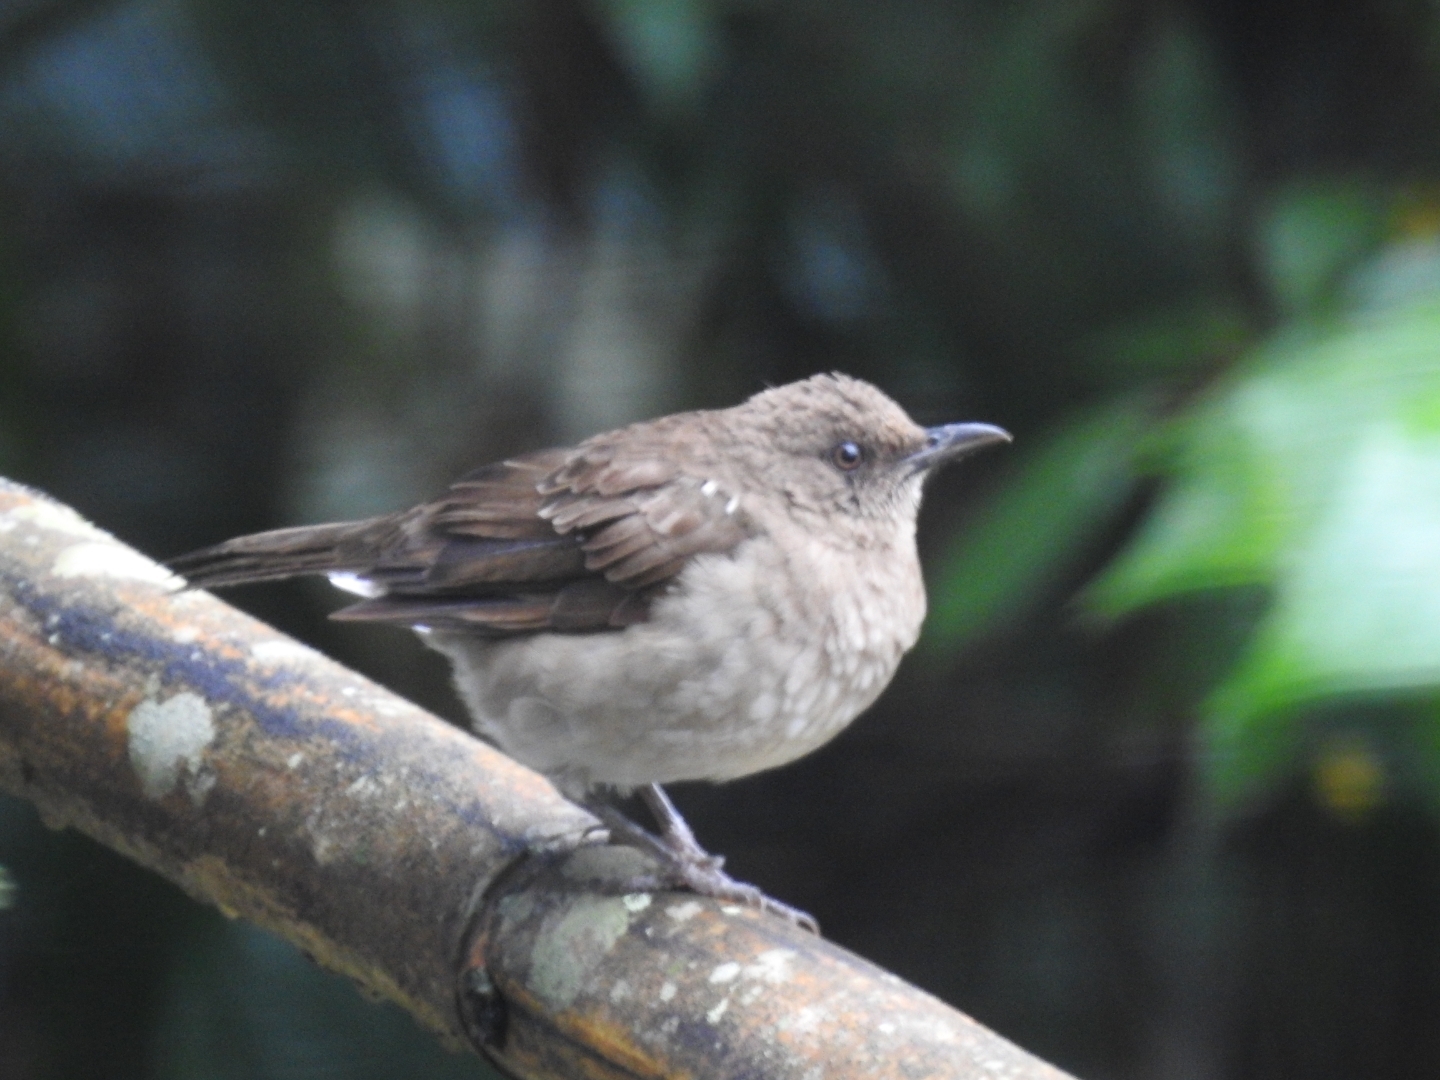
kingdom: Animalia
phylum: Chordata
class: Aves
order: Passeriformes
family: Turdidae
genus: Turdus
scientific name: Turdus ignobilis
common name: Black-billed thrush
